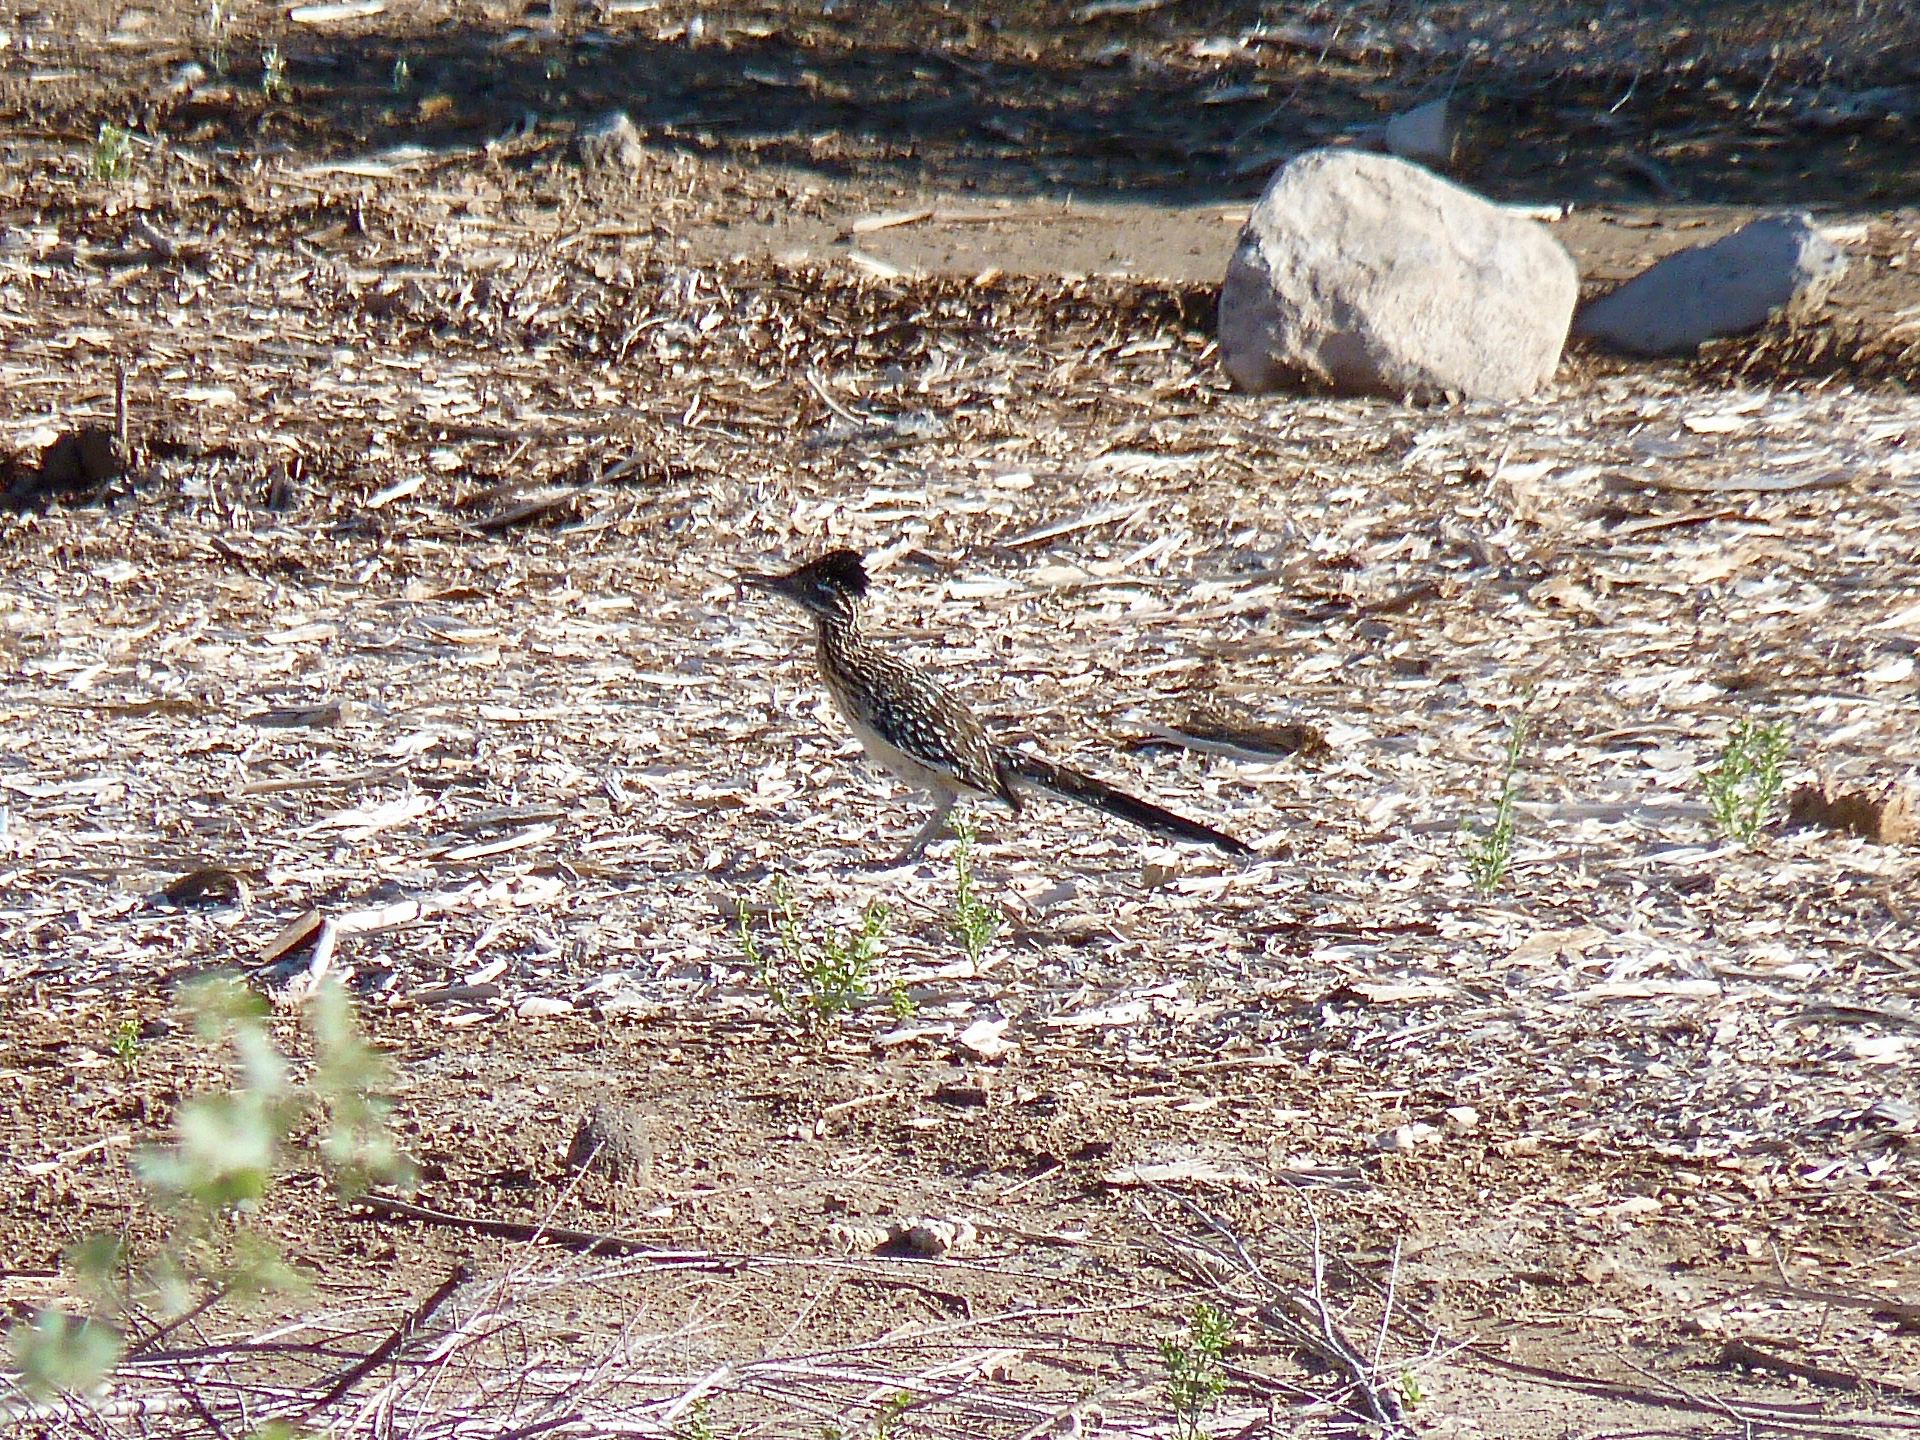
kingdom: Animalia
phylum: Chordata
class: Aves
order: Cuculiformes
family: Cuculidae
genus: Geococcyx
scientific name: Geococcyx californianus
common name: Greater roadrunner
